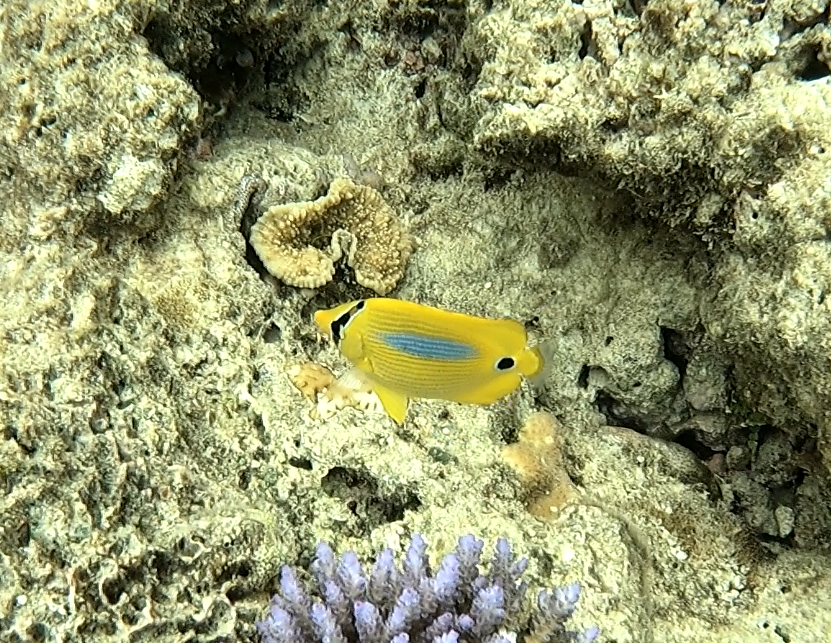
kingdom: Animalia
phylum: Chordata
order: Perciformes
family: Chaetodontidae
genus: Chaetodon
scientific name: Chaetodon plebeius
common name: Bluespot butterflyfish
